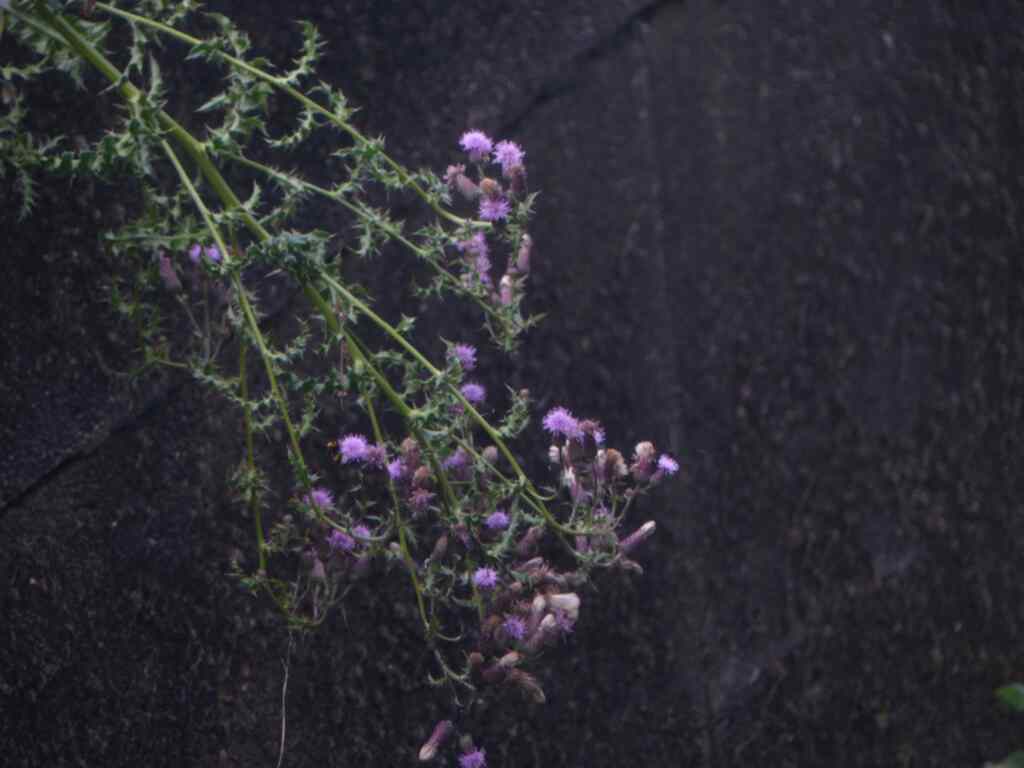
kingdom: Plantae
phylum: Tracheophyta
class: Magnoliopsida
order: Asterales
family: Asteraceae
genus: Cirsium
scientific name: Cirsium arvense
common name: Creeping thistle
